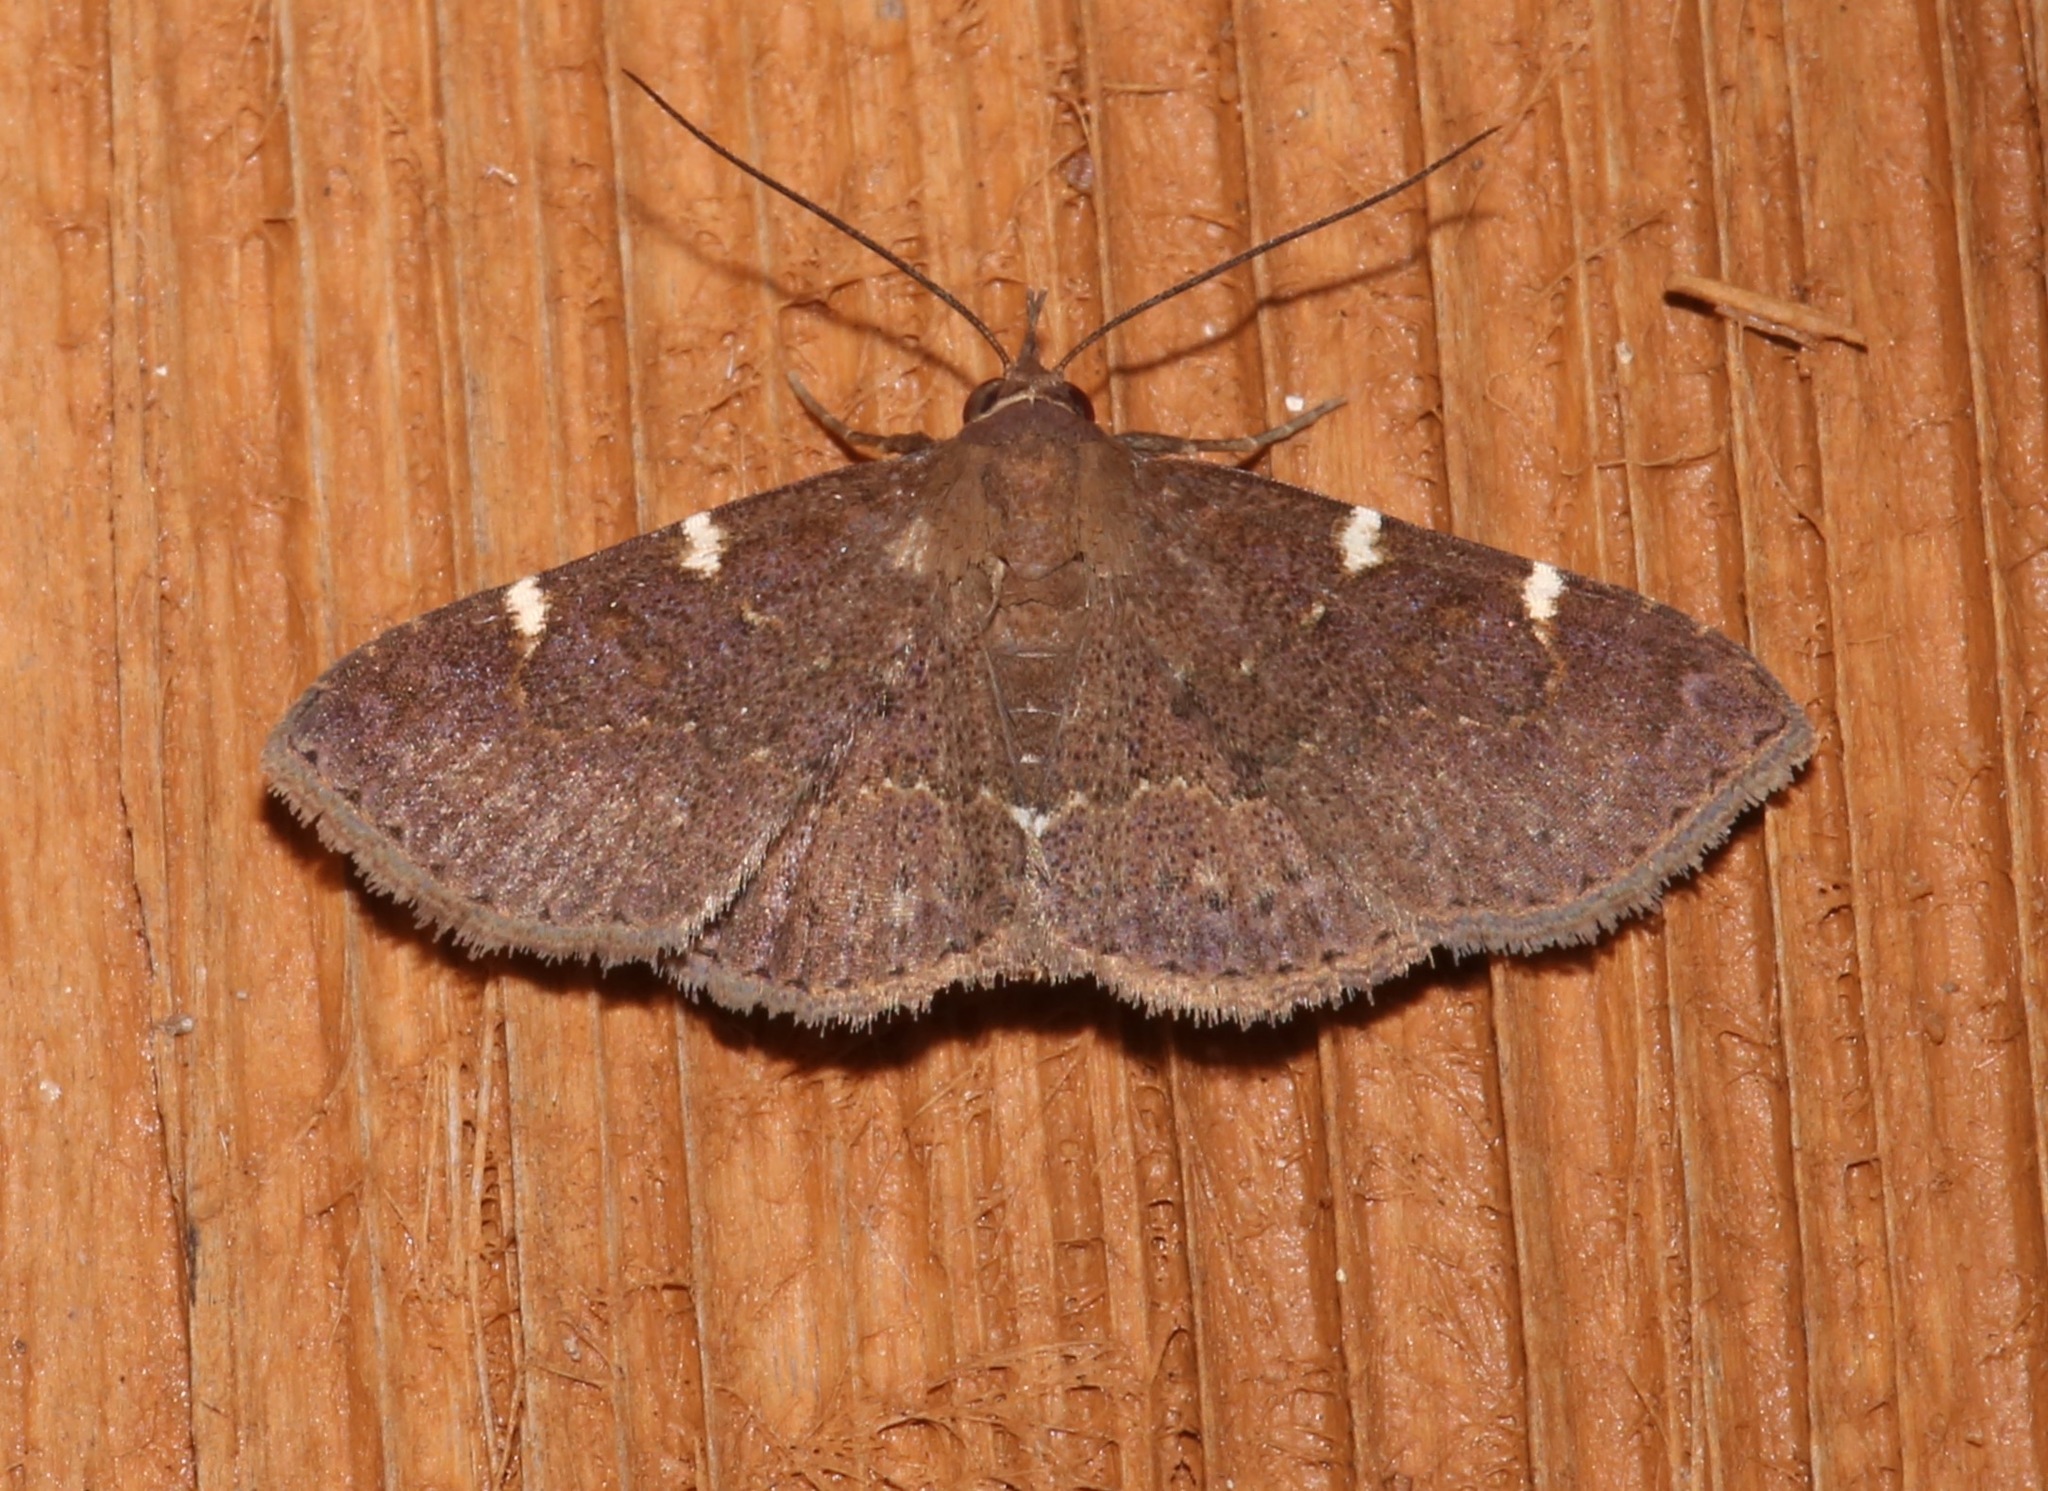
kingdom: Animalia
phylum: Arthropoda
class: Insecta
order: Lepidoptera
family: Erebidae
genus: Antiblemma
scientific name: Antiblemma perva
